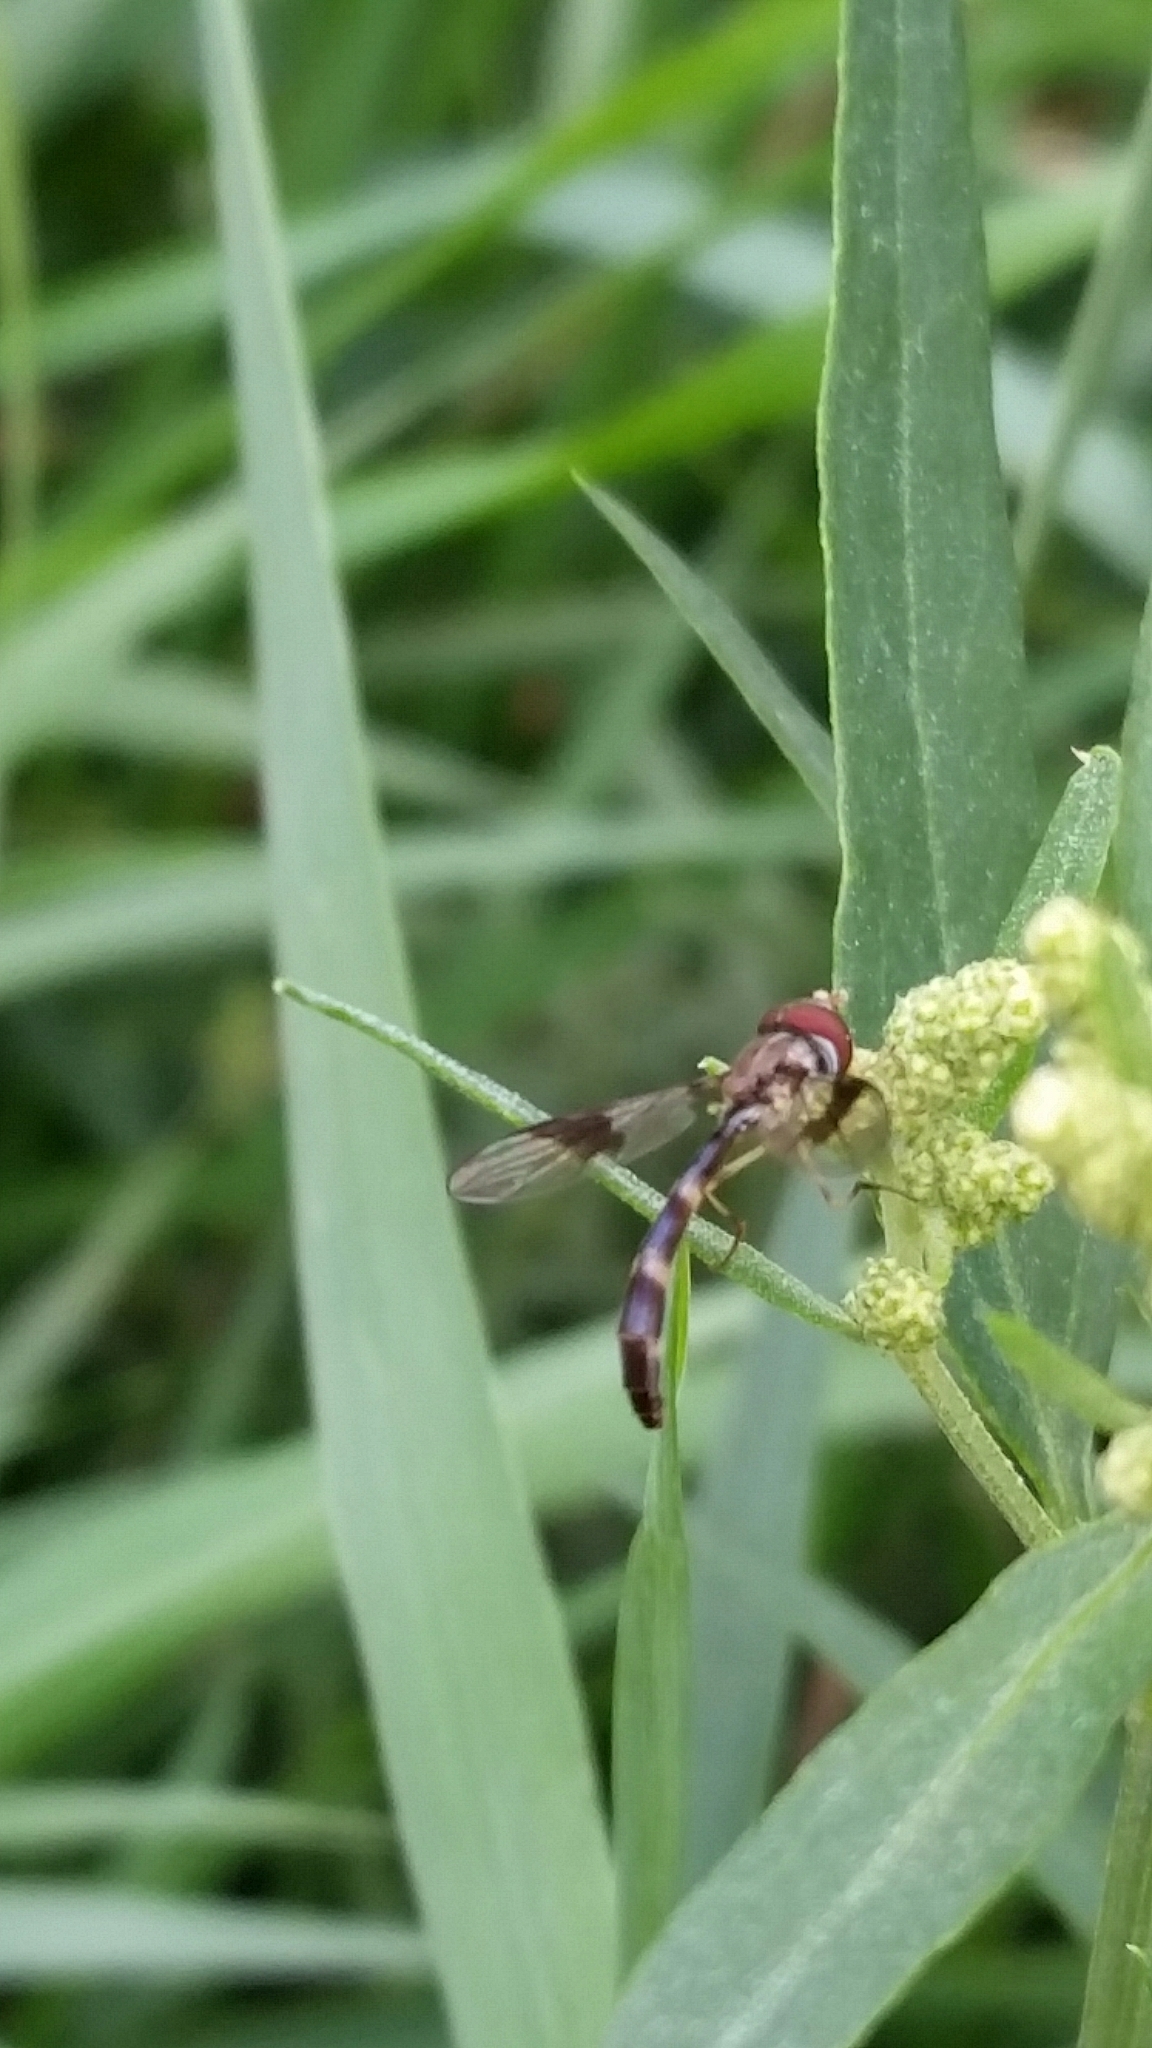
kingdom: Animalia
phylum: Arthropoda
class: Insecta
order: Diptera
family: Syrphidae
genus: Hypocritanus
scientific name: Hypocritanus fascipennis
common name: Eastern band-winged hover fly
